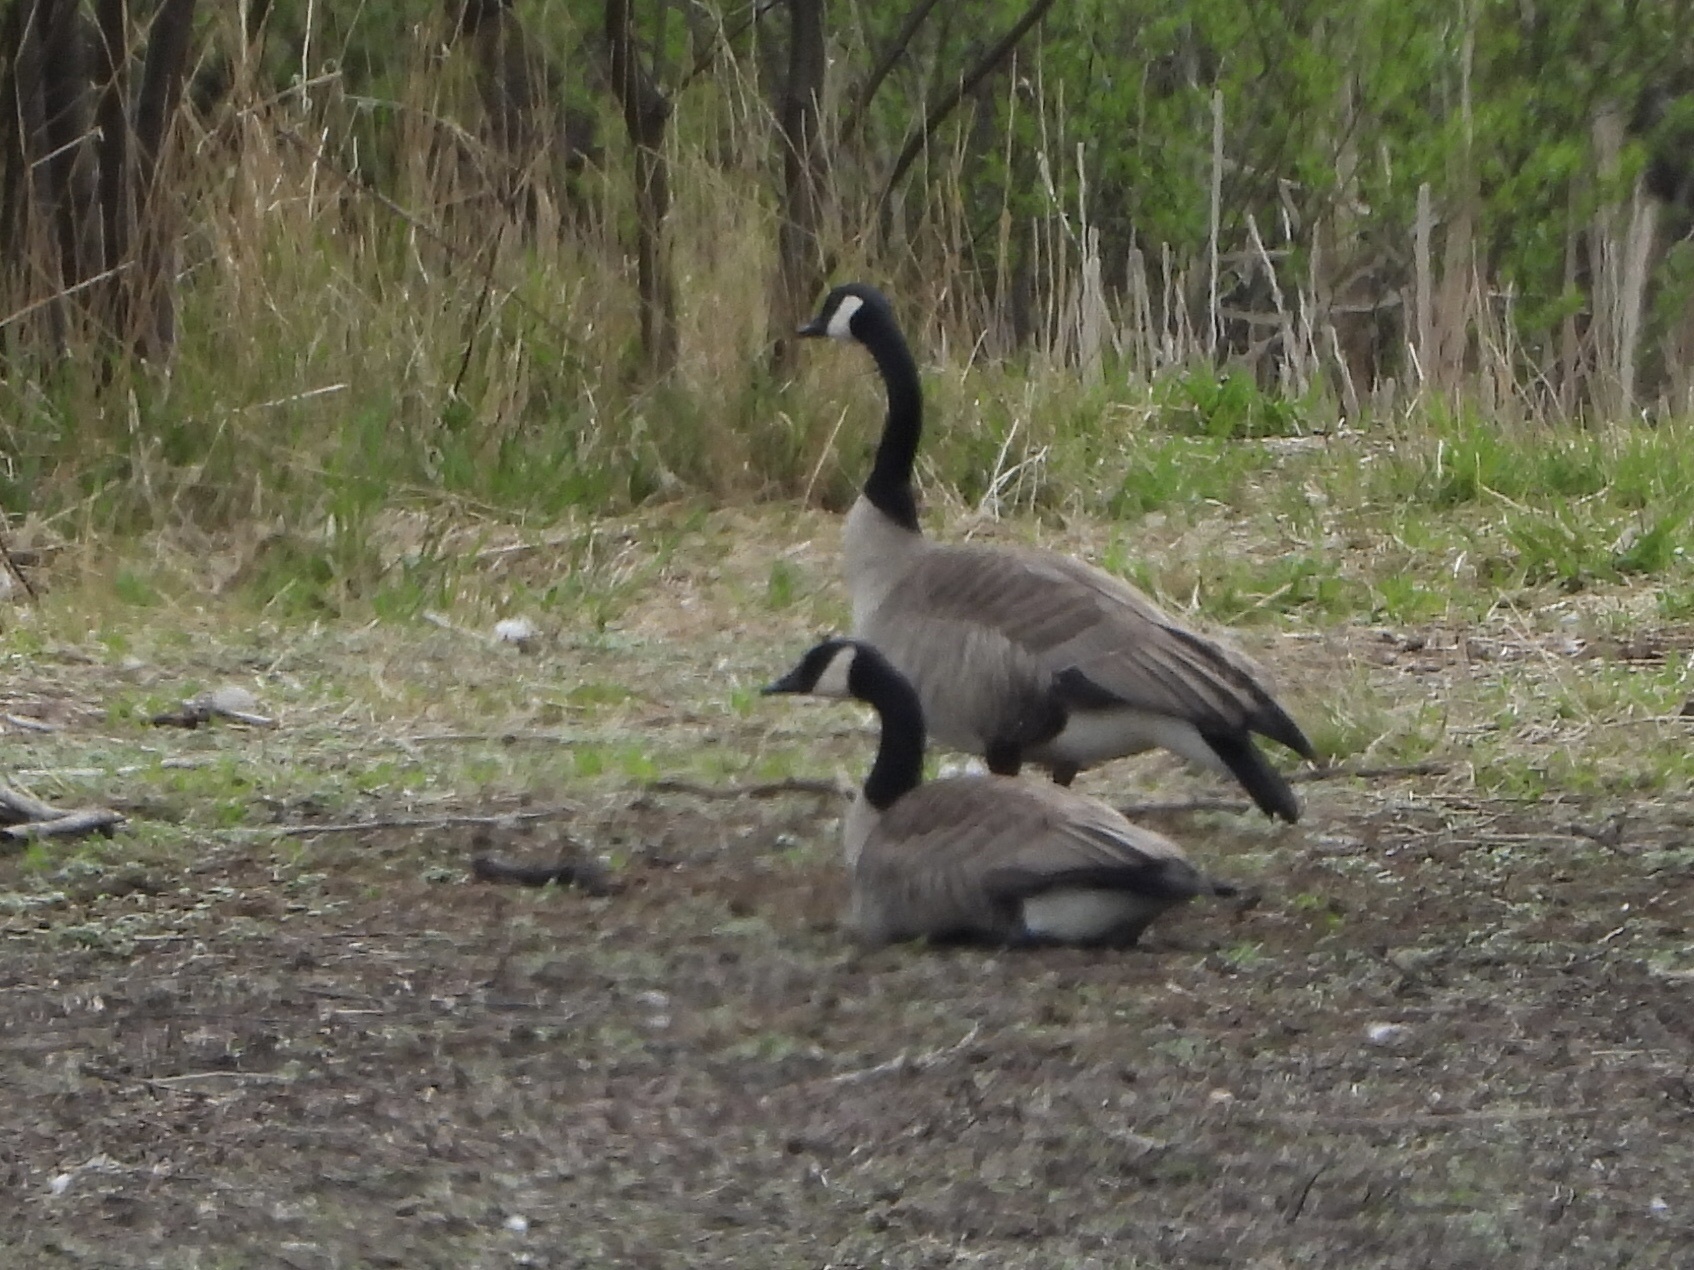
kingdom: Animalia
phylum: Chordata
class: Aves
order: Anseriformes
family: Anatidae
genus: Branta
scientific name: Branta canadensis
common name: Canada goose
